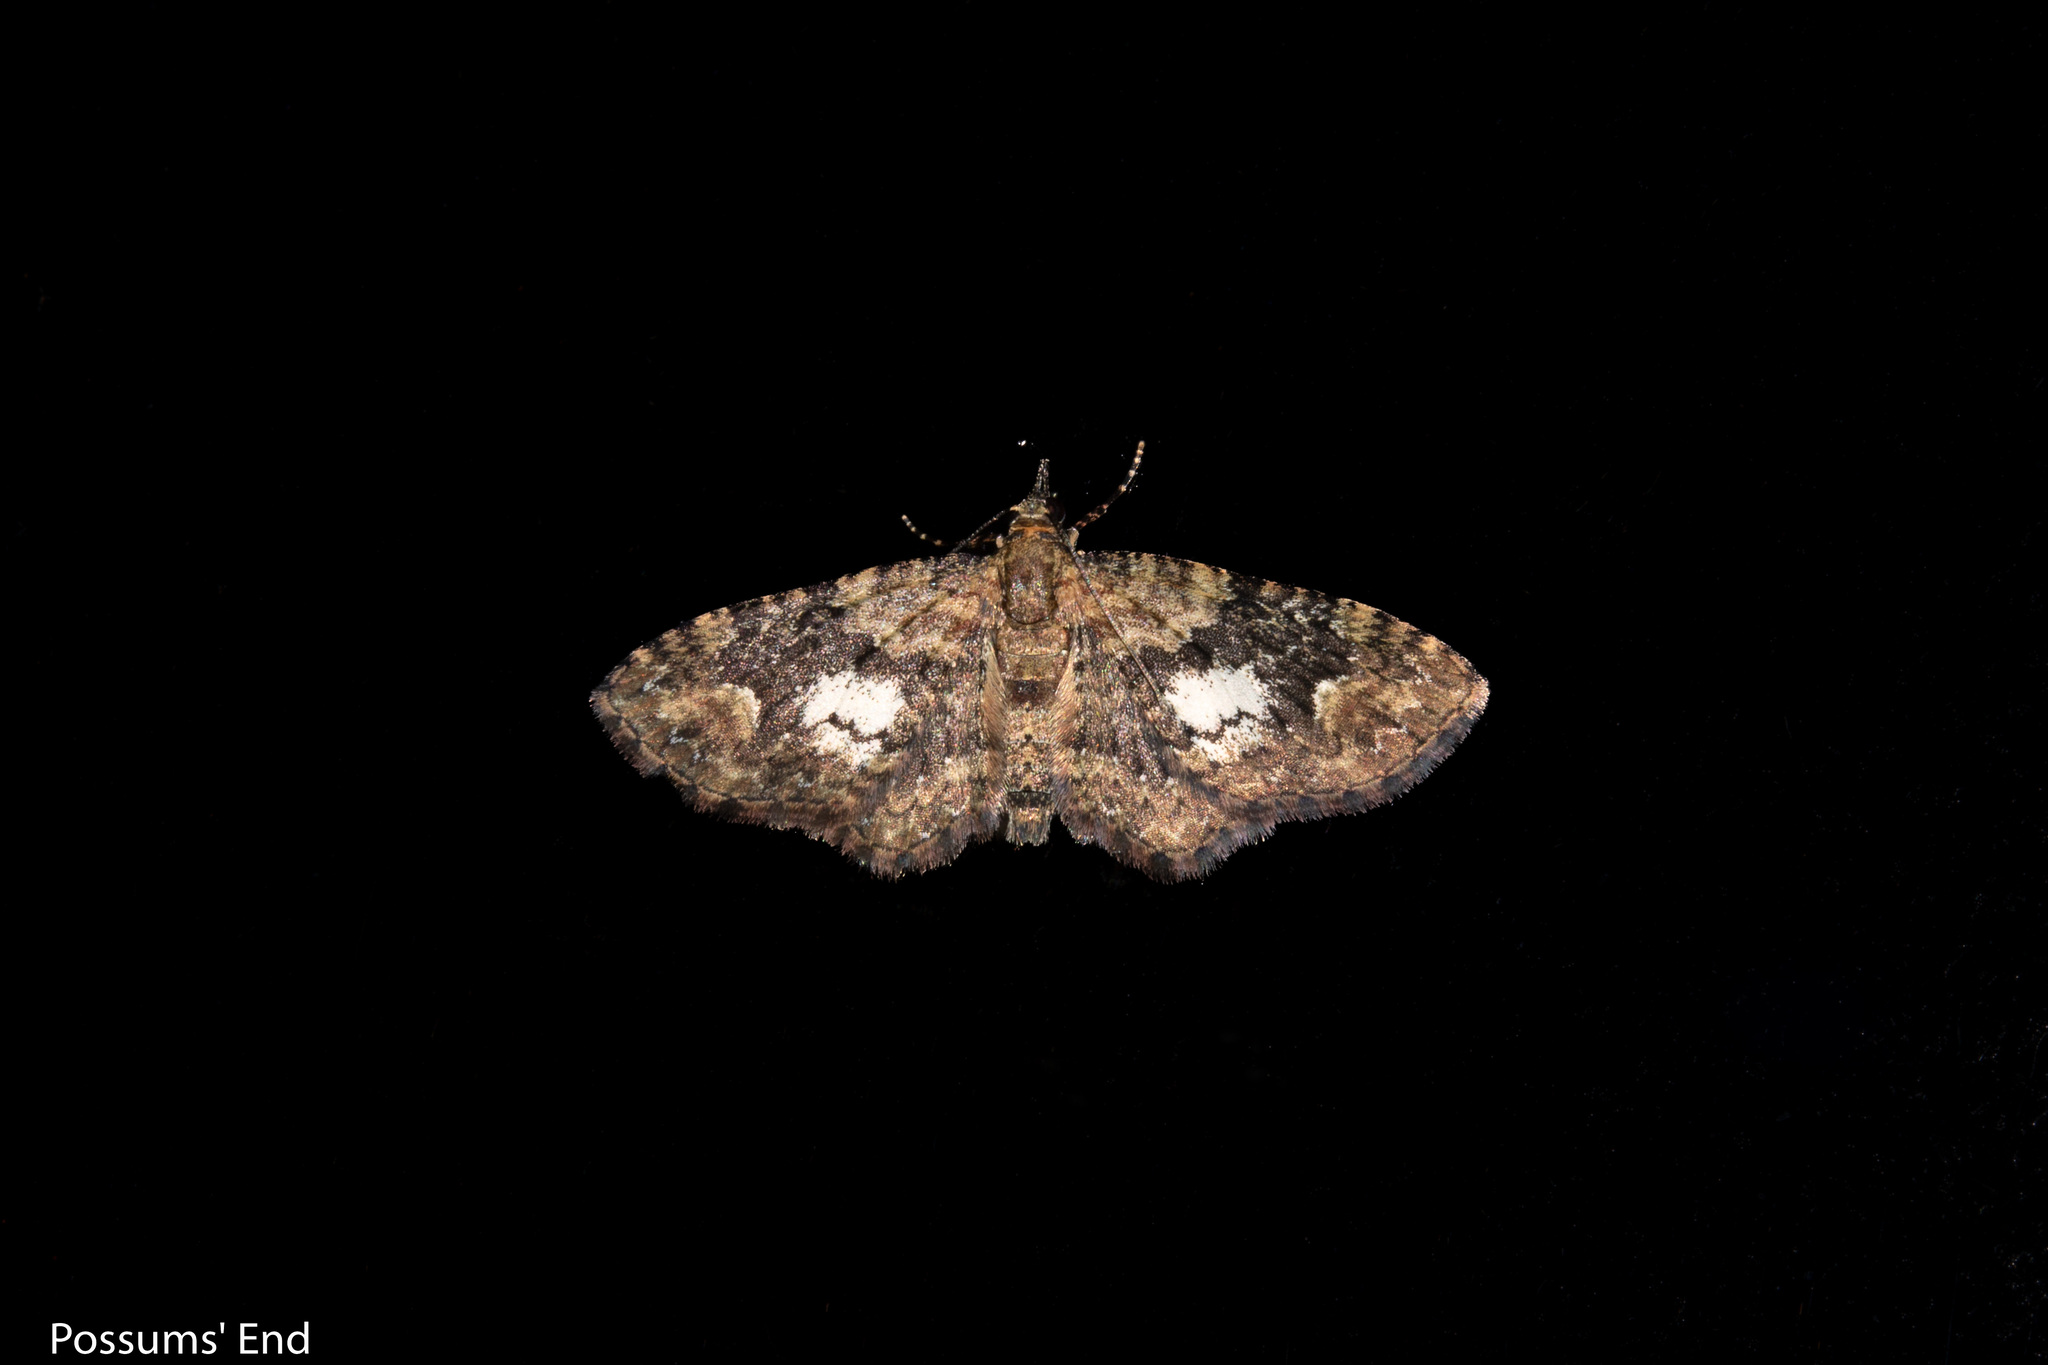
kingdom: Animalia
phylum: Arthropoda
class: Insecta
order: Lepidoptera
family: Geometridae
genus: Pasiphilodes
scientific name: Pasiphilodes testulata
